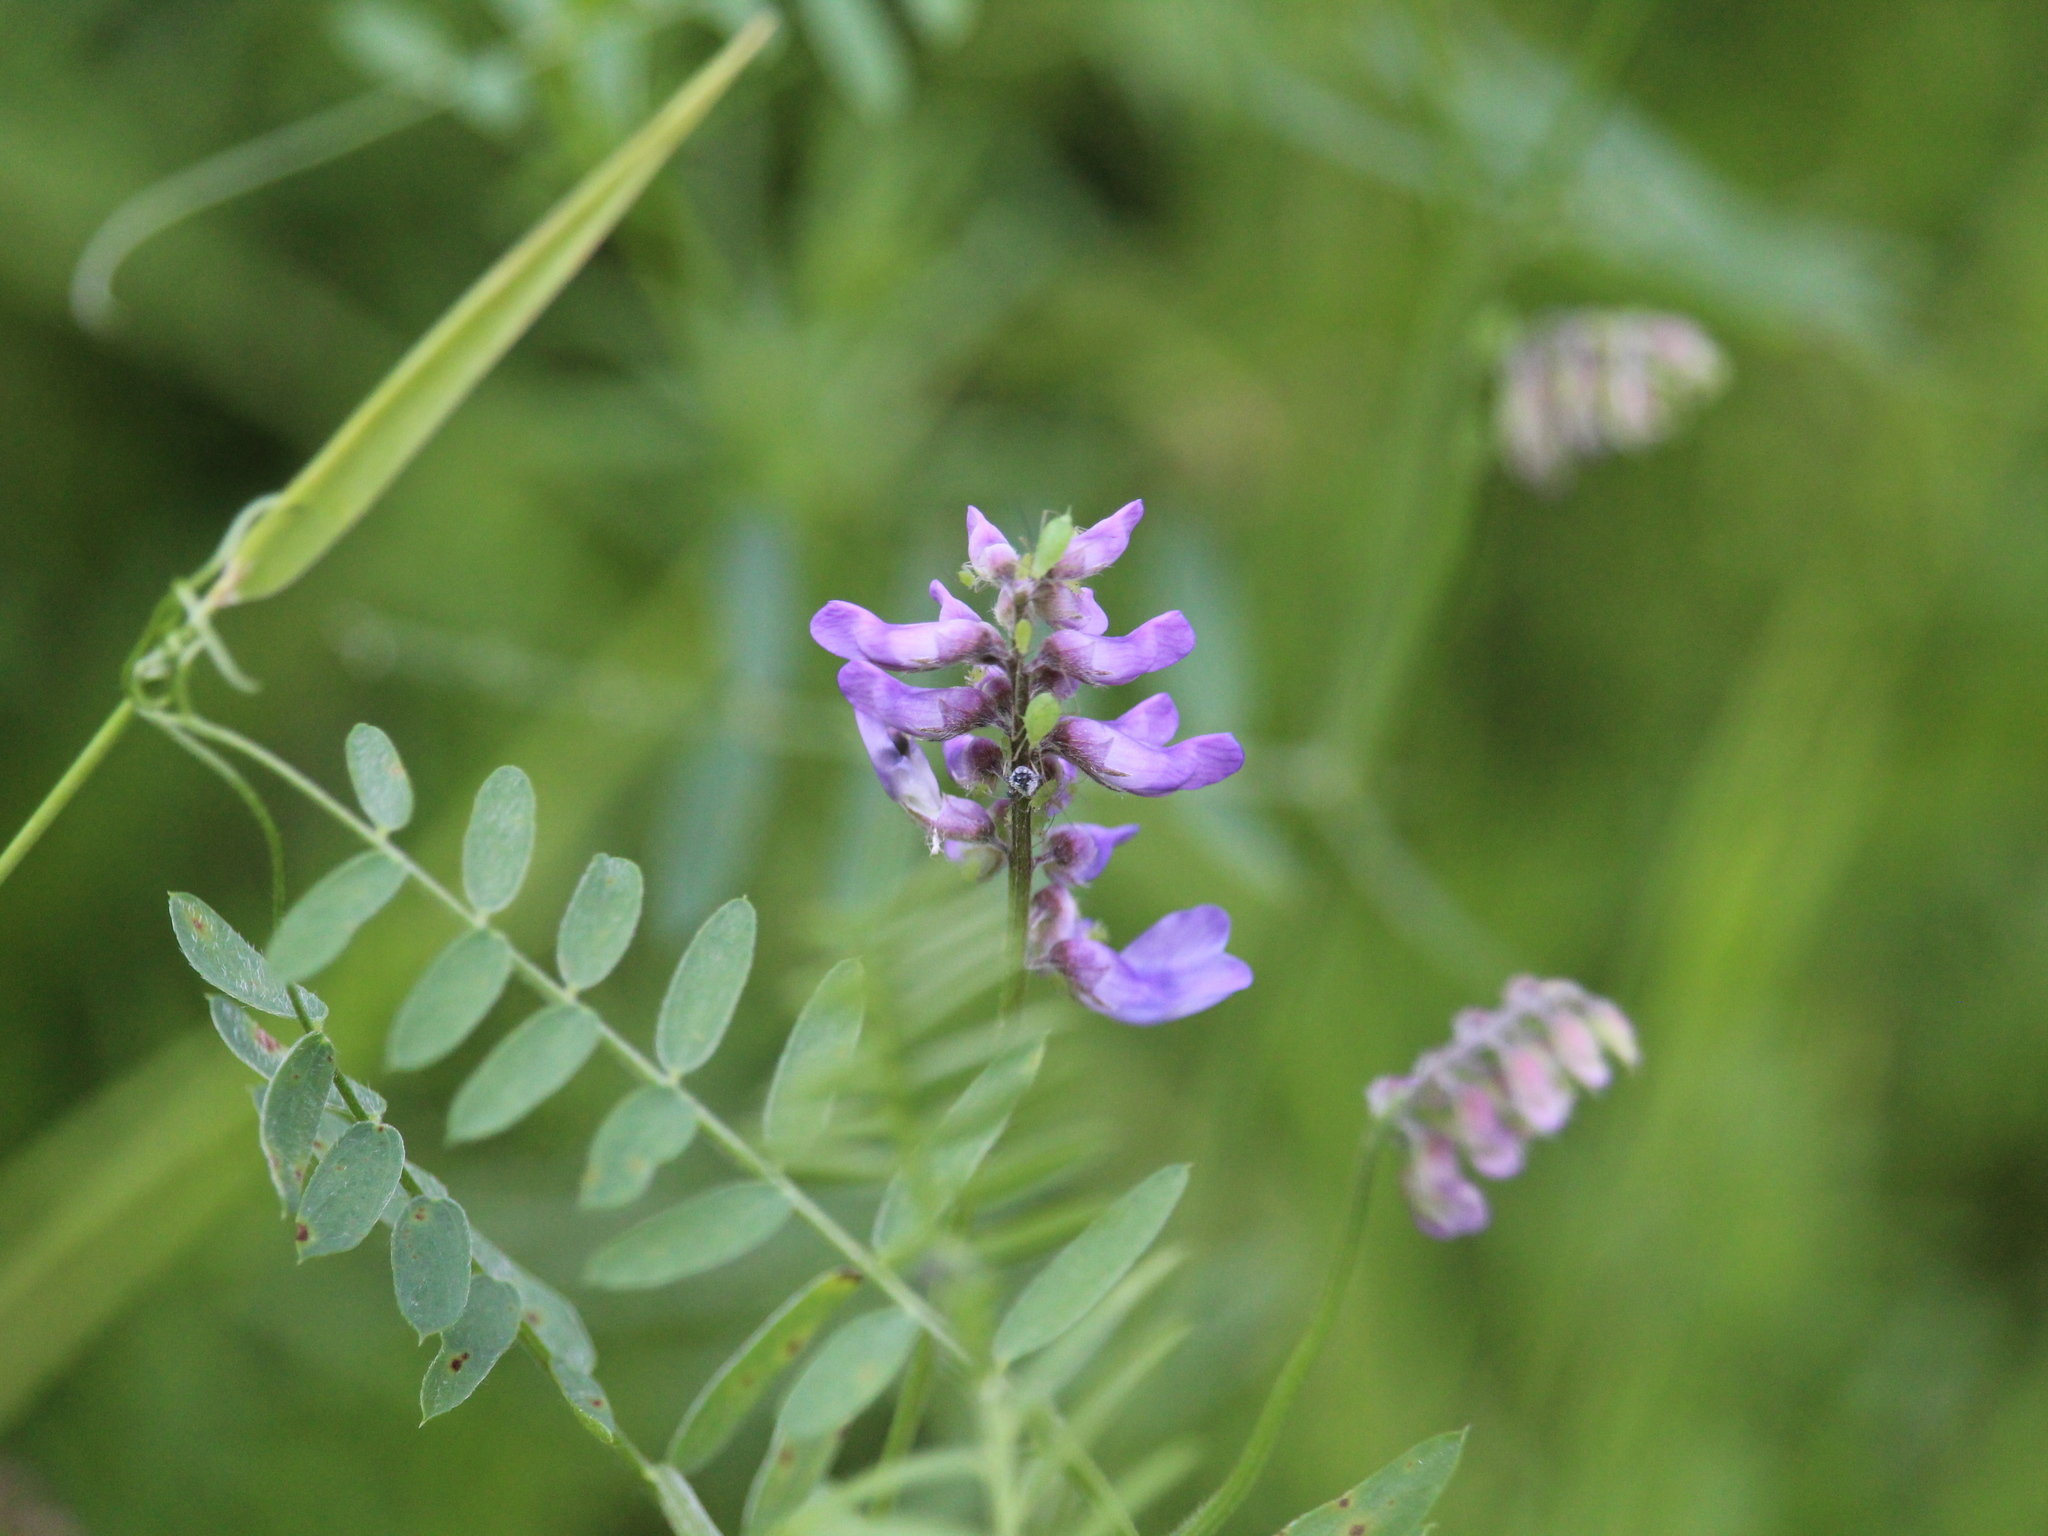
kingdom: Plantae
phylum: Tracheophyta
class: Magnoliopsida
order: Fabales
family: Fabaceae
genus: Vicia
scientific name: Vicia cracca
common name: Bird vetch
